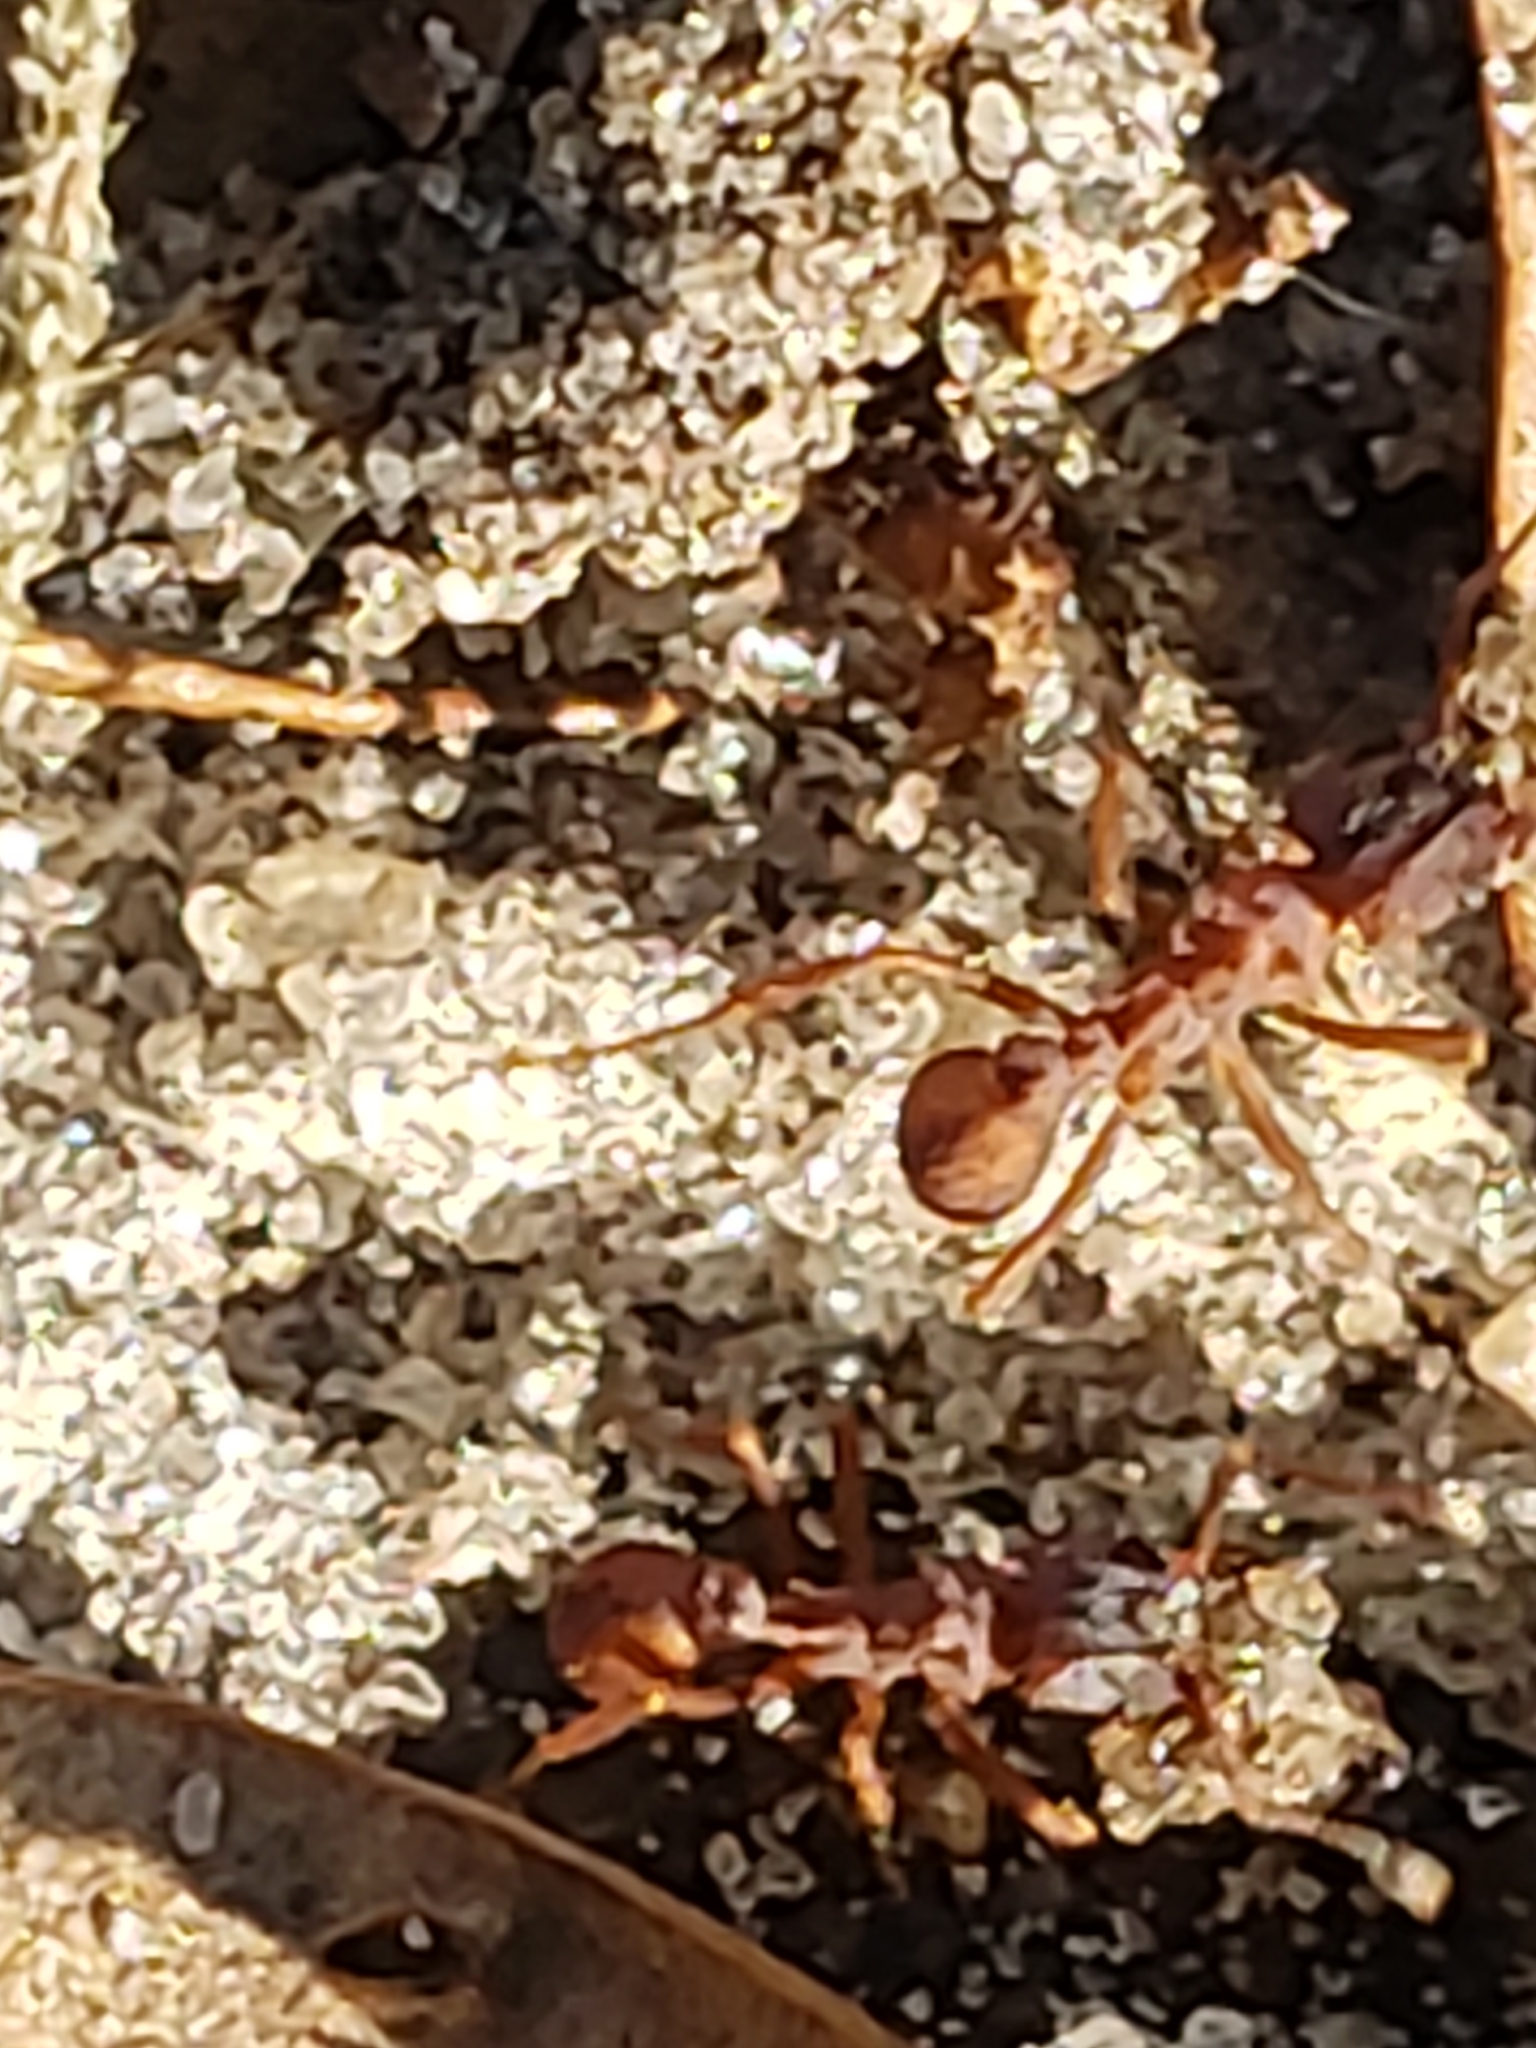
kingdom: Animalia
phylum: Arthropoda
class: Insecta
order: Hymenoptera
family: Formicidae
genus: Trachymyrmex
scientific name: Trachymyrmex septentrionalis
